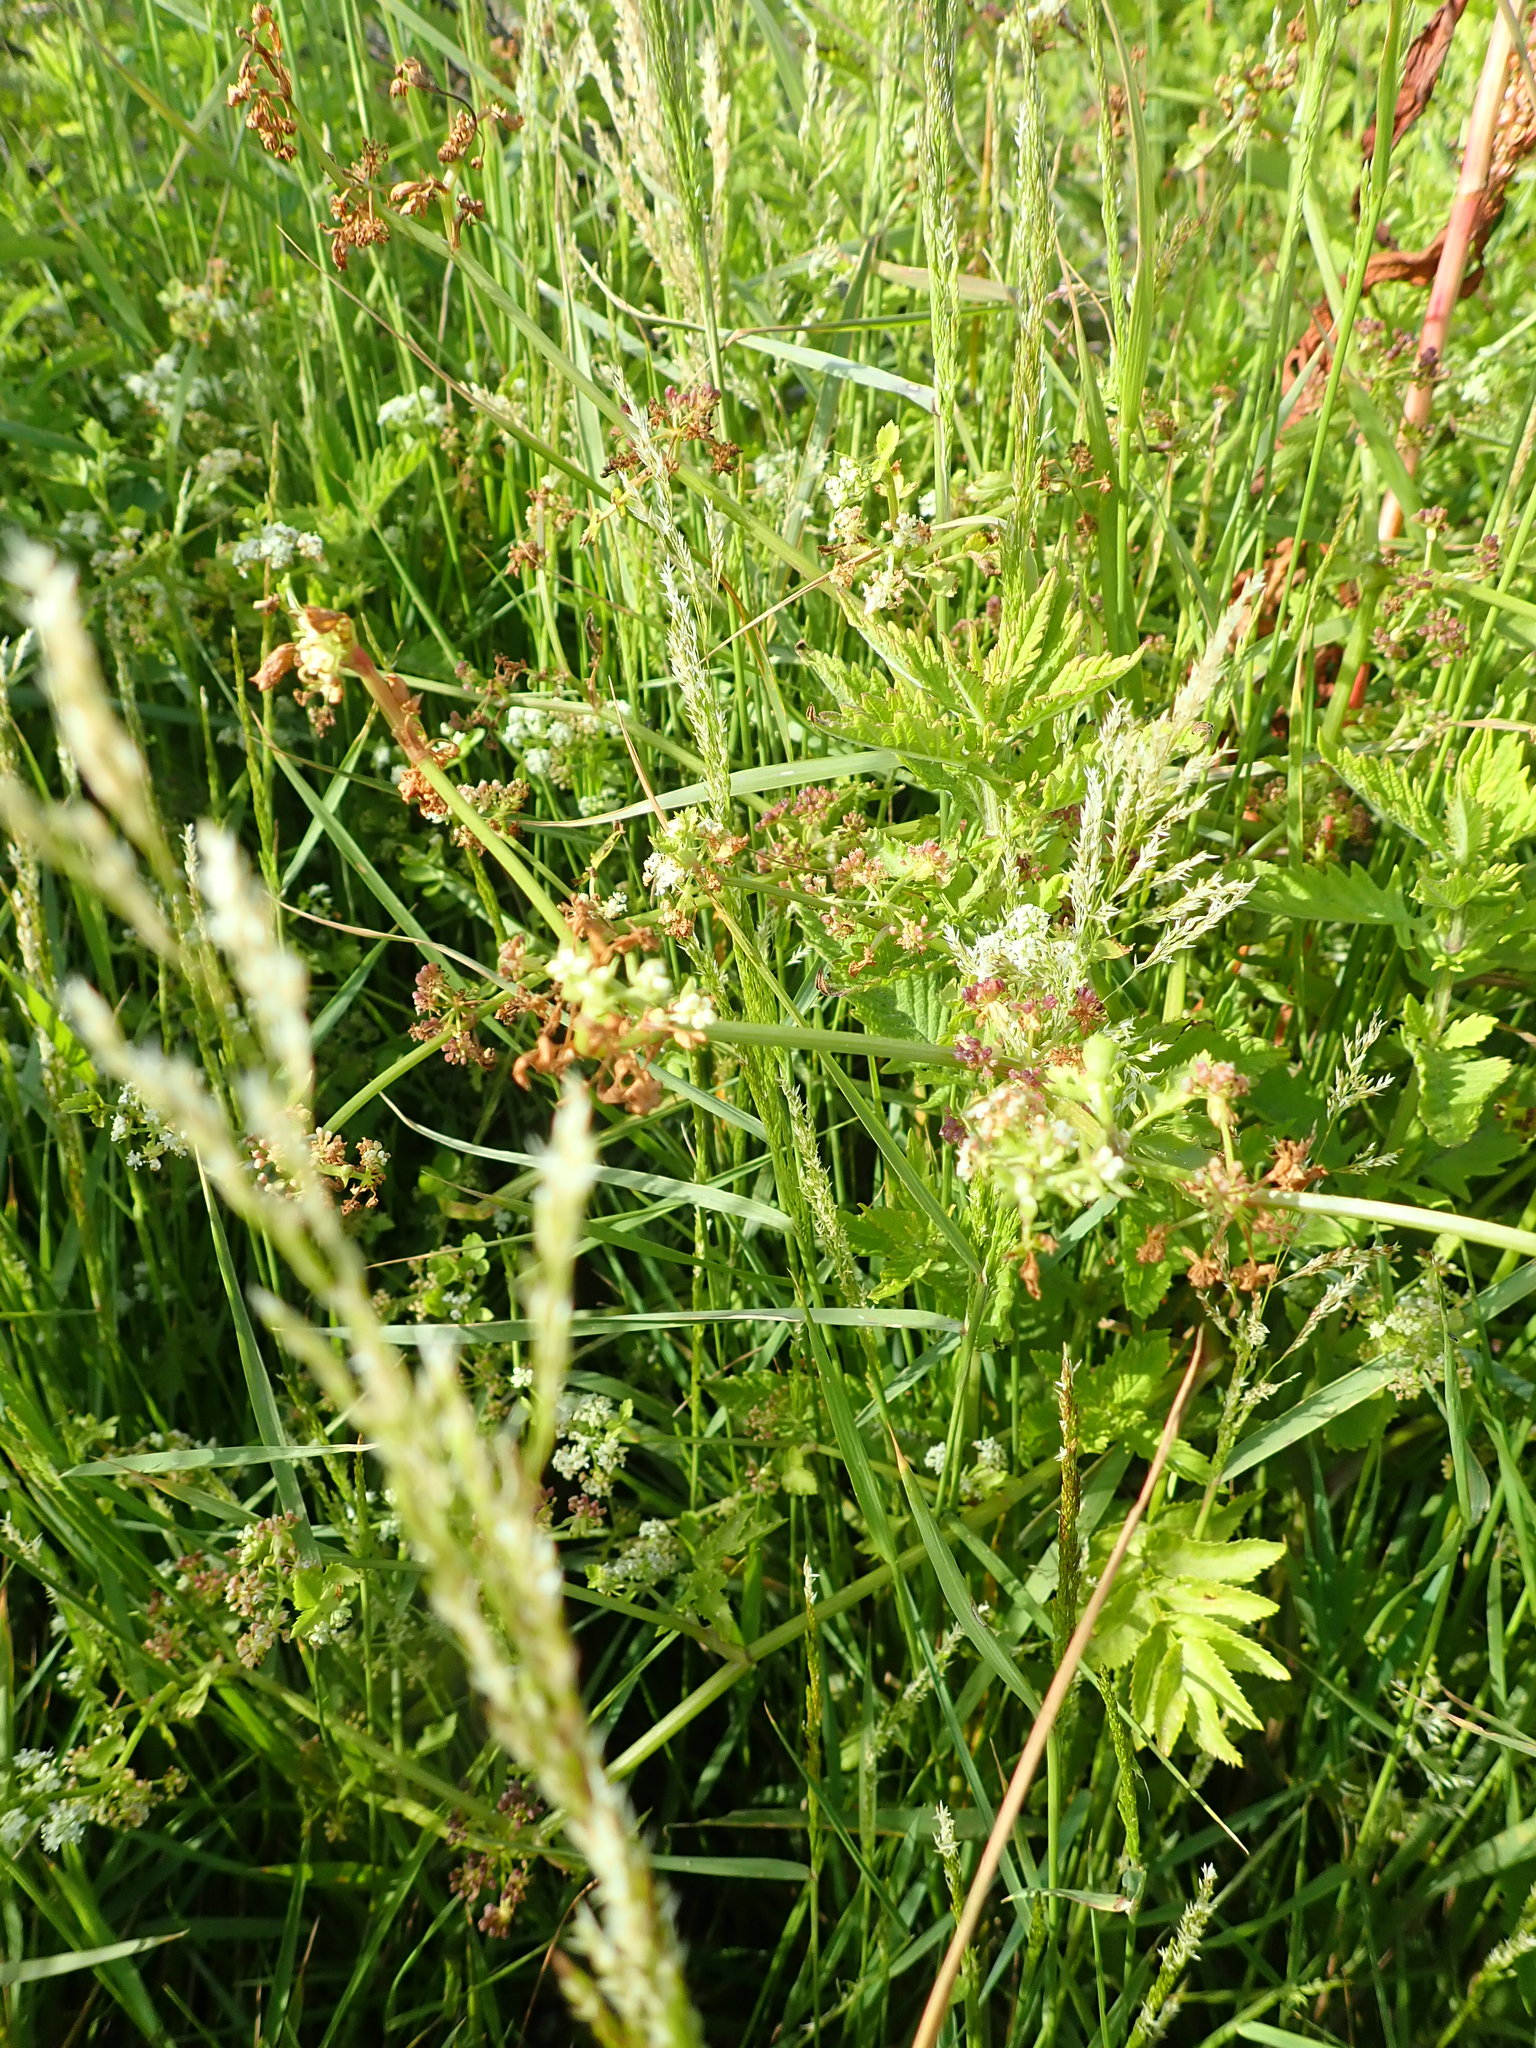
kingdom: Plantae
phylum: Tracheophyta
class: Magnoliopsida
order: Apiales
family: Apiaceae
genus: Helosciadium
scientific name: Helosciadium nodiflorum
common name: Fool's-watercress
